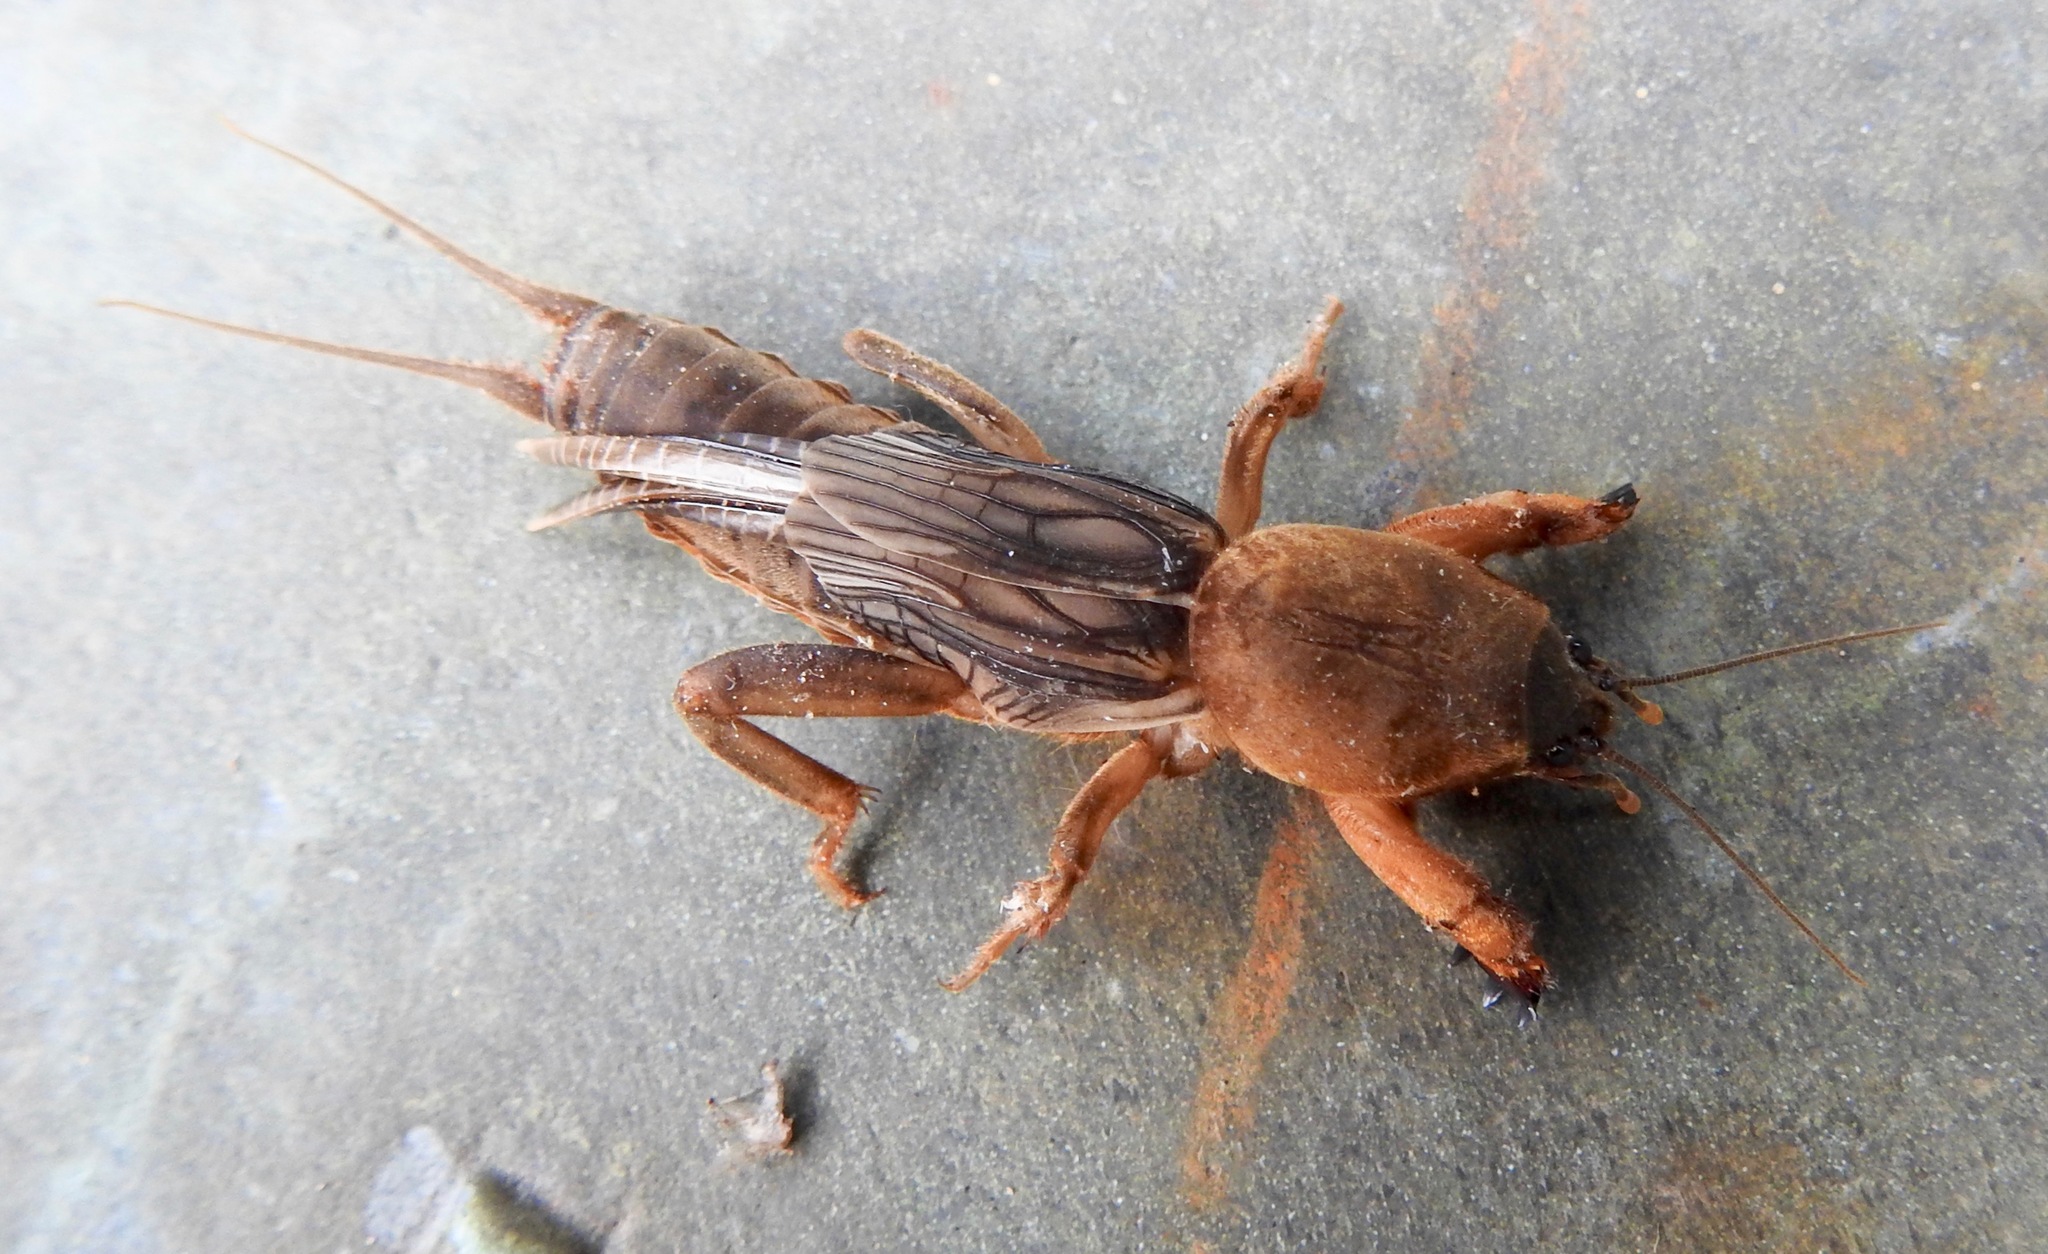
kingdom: Animalia
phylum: Arthropoda
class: Insecta
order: Orthoptera
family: Gryllotalpidae
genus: Neocurtilla
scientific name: Neocurtilla hexadactyla
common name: Northern mole cricket
